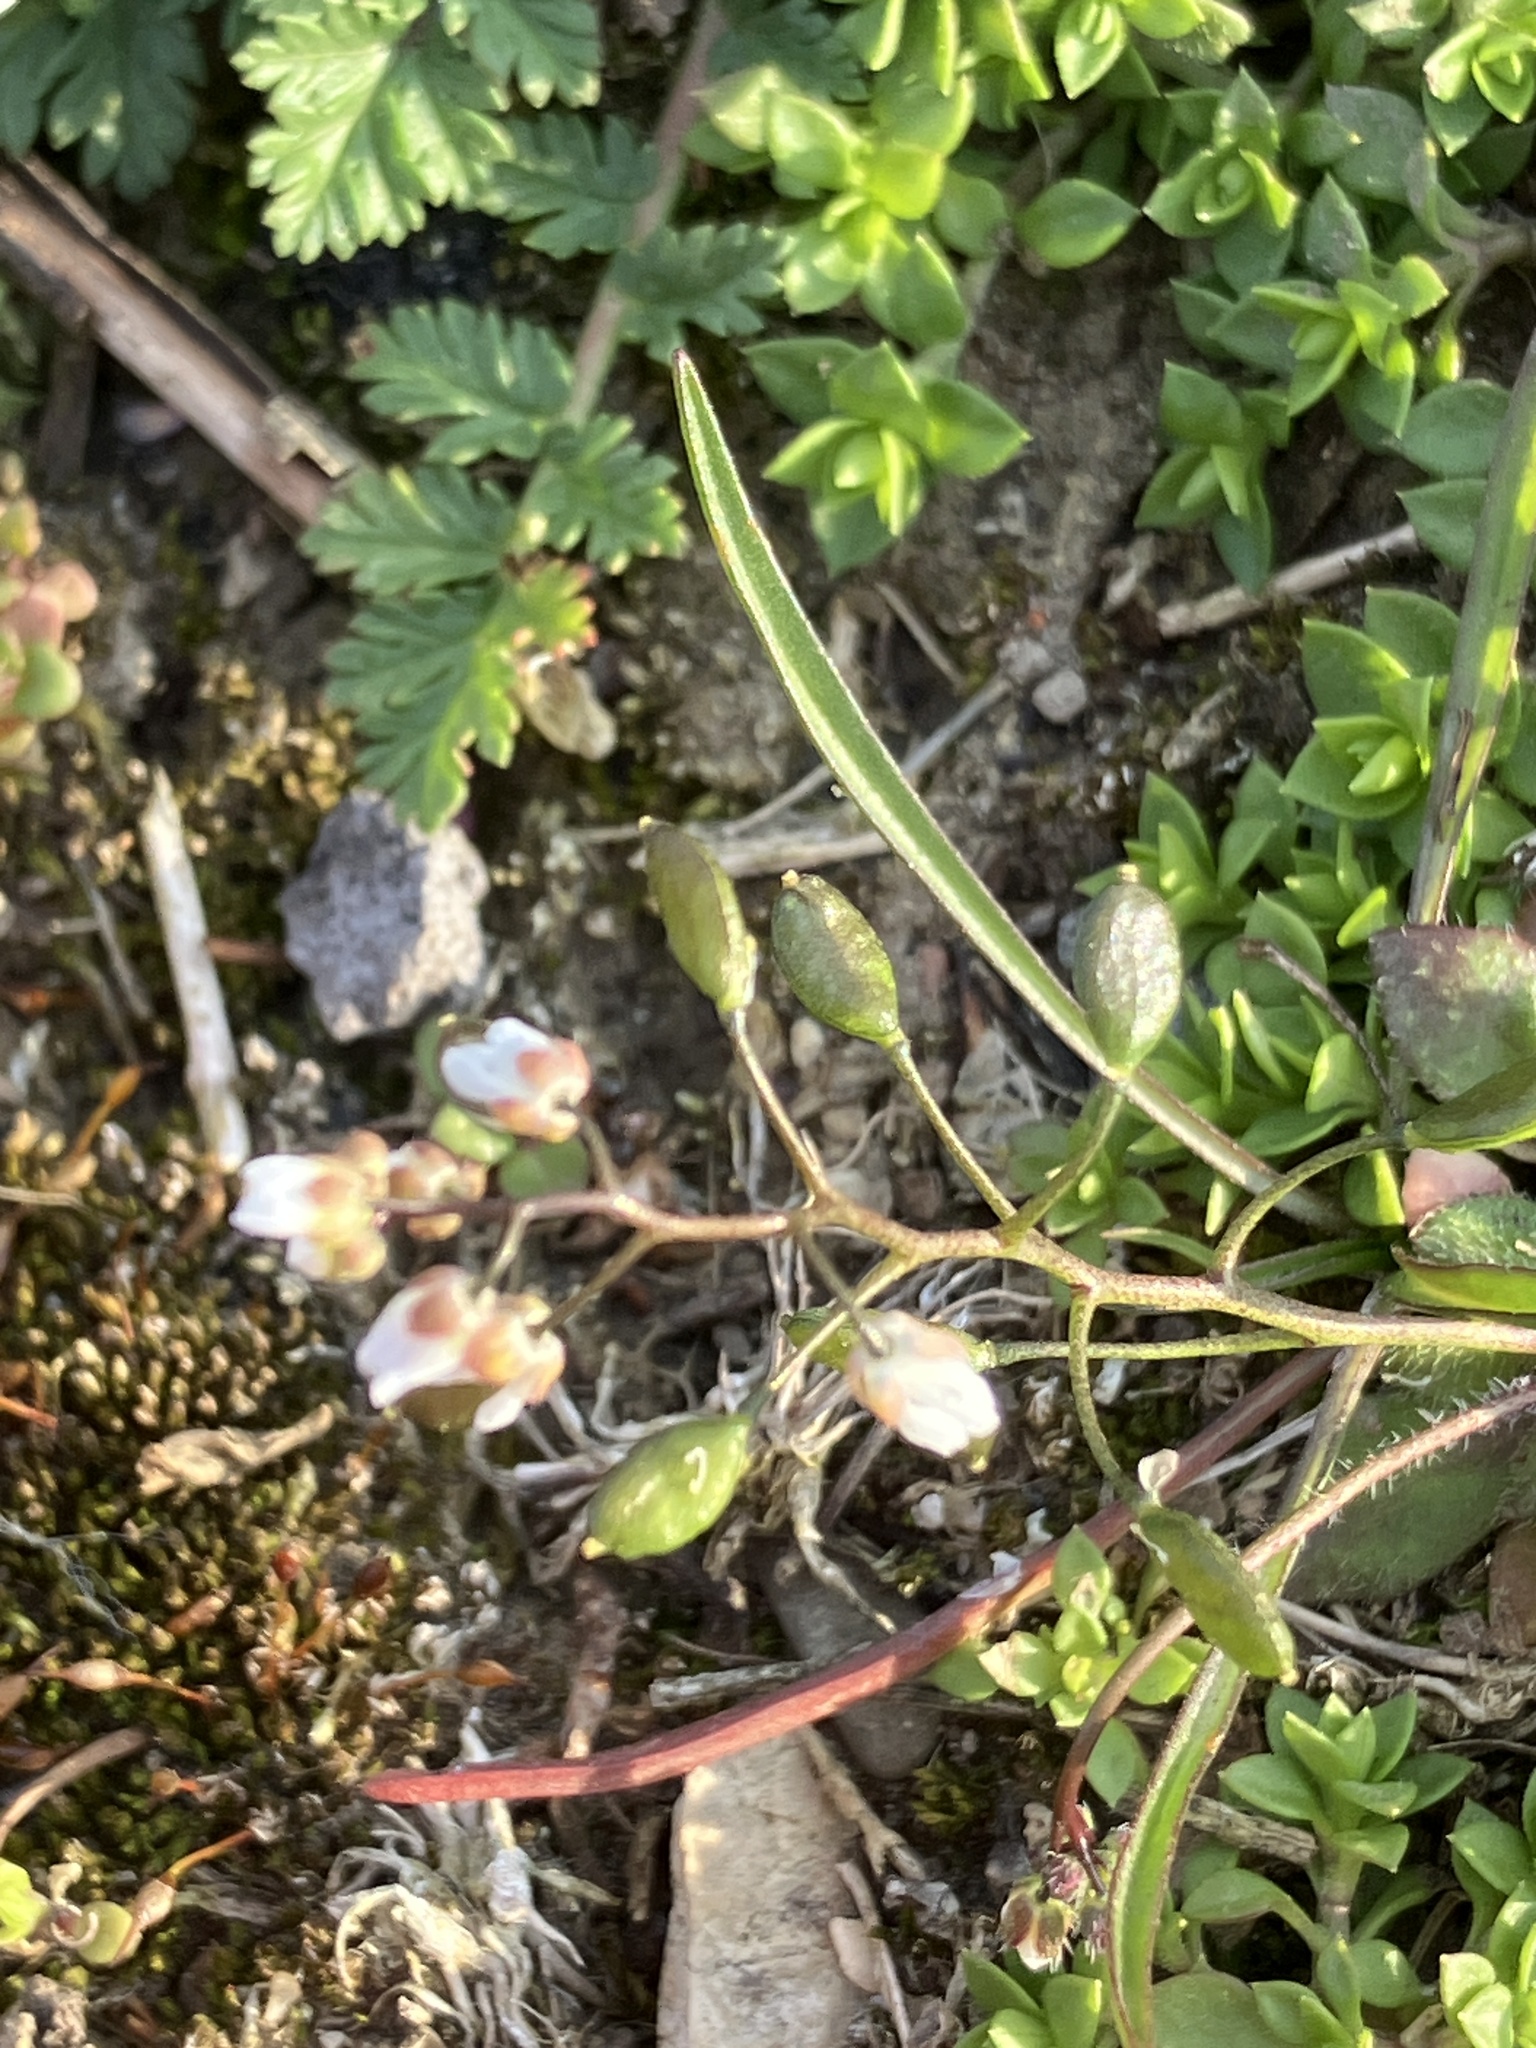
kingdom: Plantae
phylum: Tracheophyta
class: Magnoliopsida
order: Brassicales
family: Brassicaceae
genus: Draba
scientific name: Draba verna
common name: Spring draba
